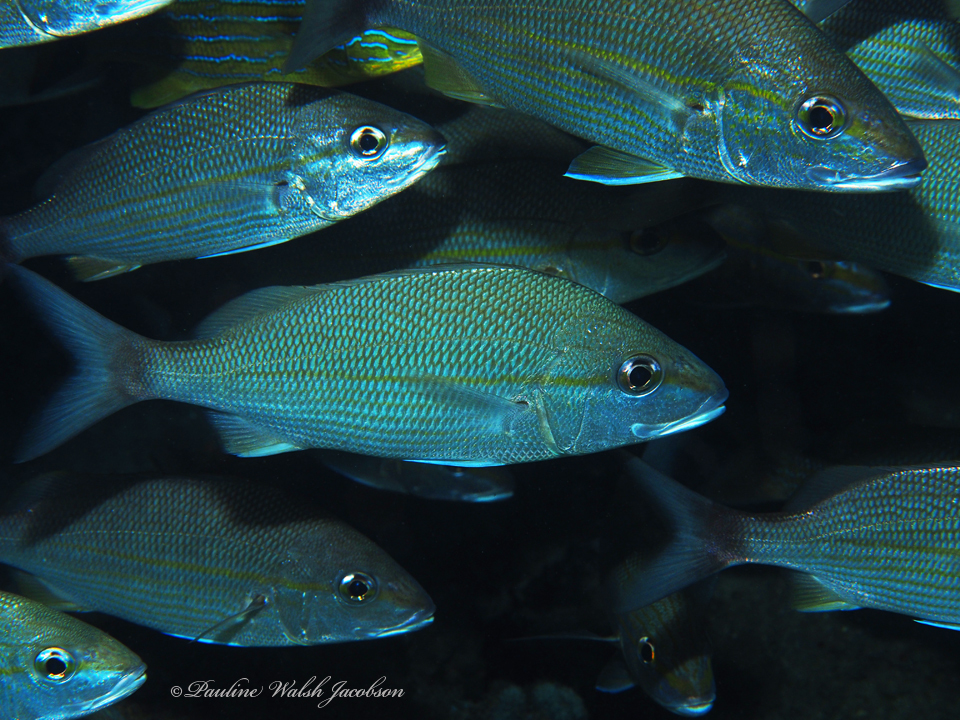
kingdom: Animalia
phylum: Chordata
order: Perciformes
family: Haemulidae
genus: Haemulon
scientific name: Haemulon aurolineatum
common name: Tomtate
